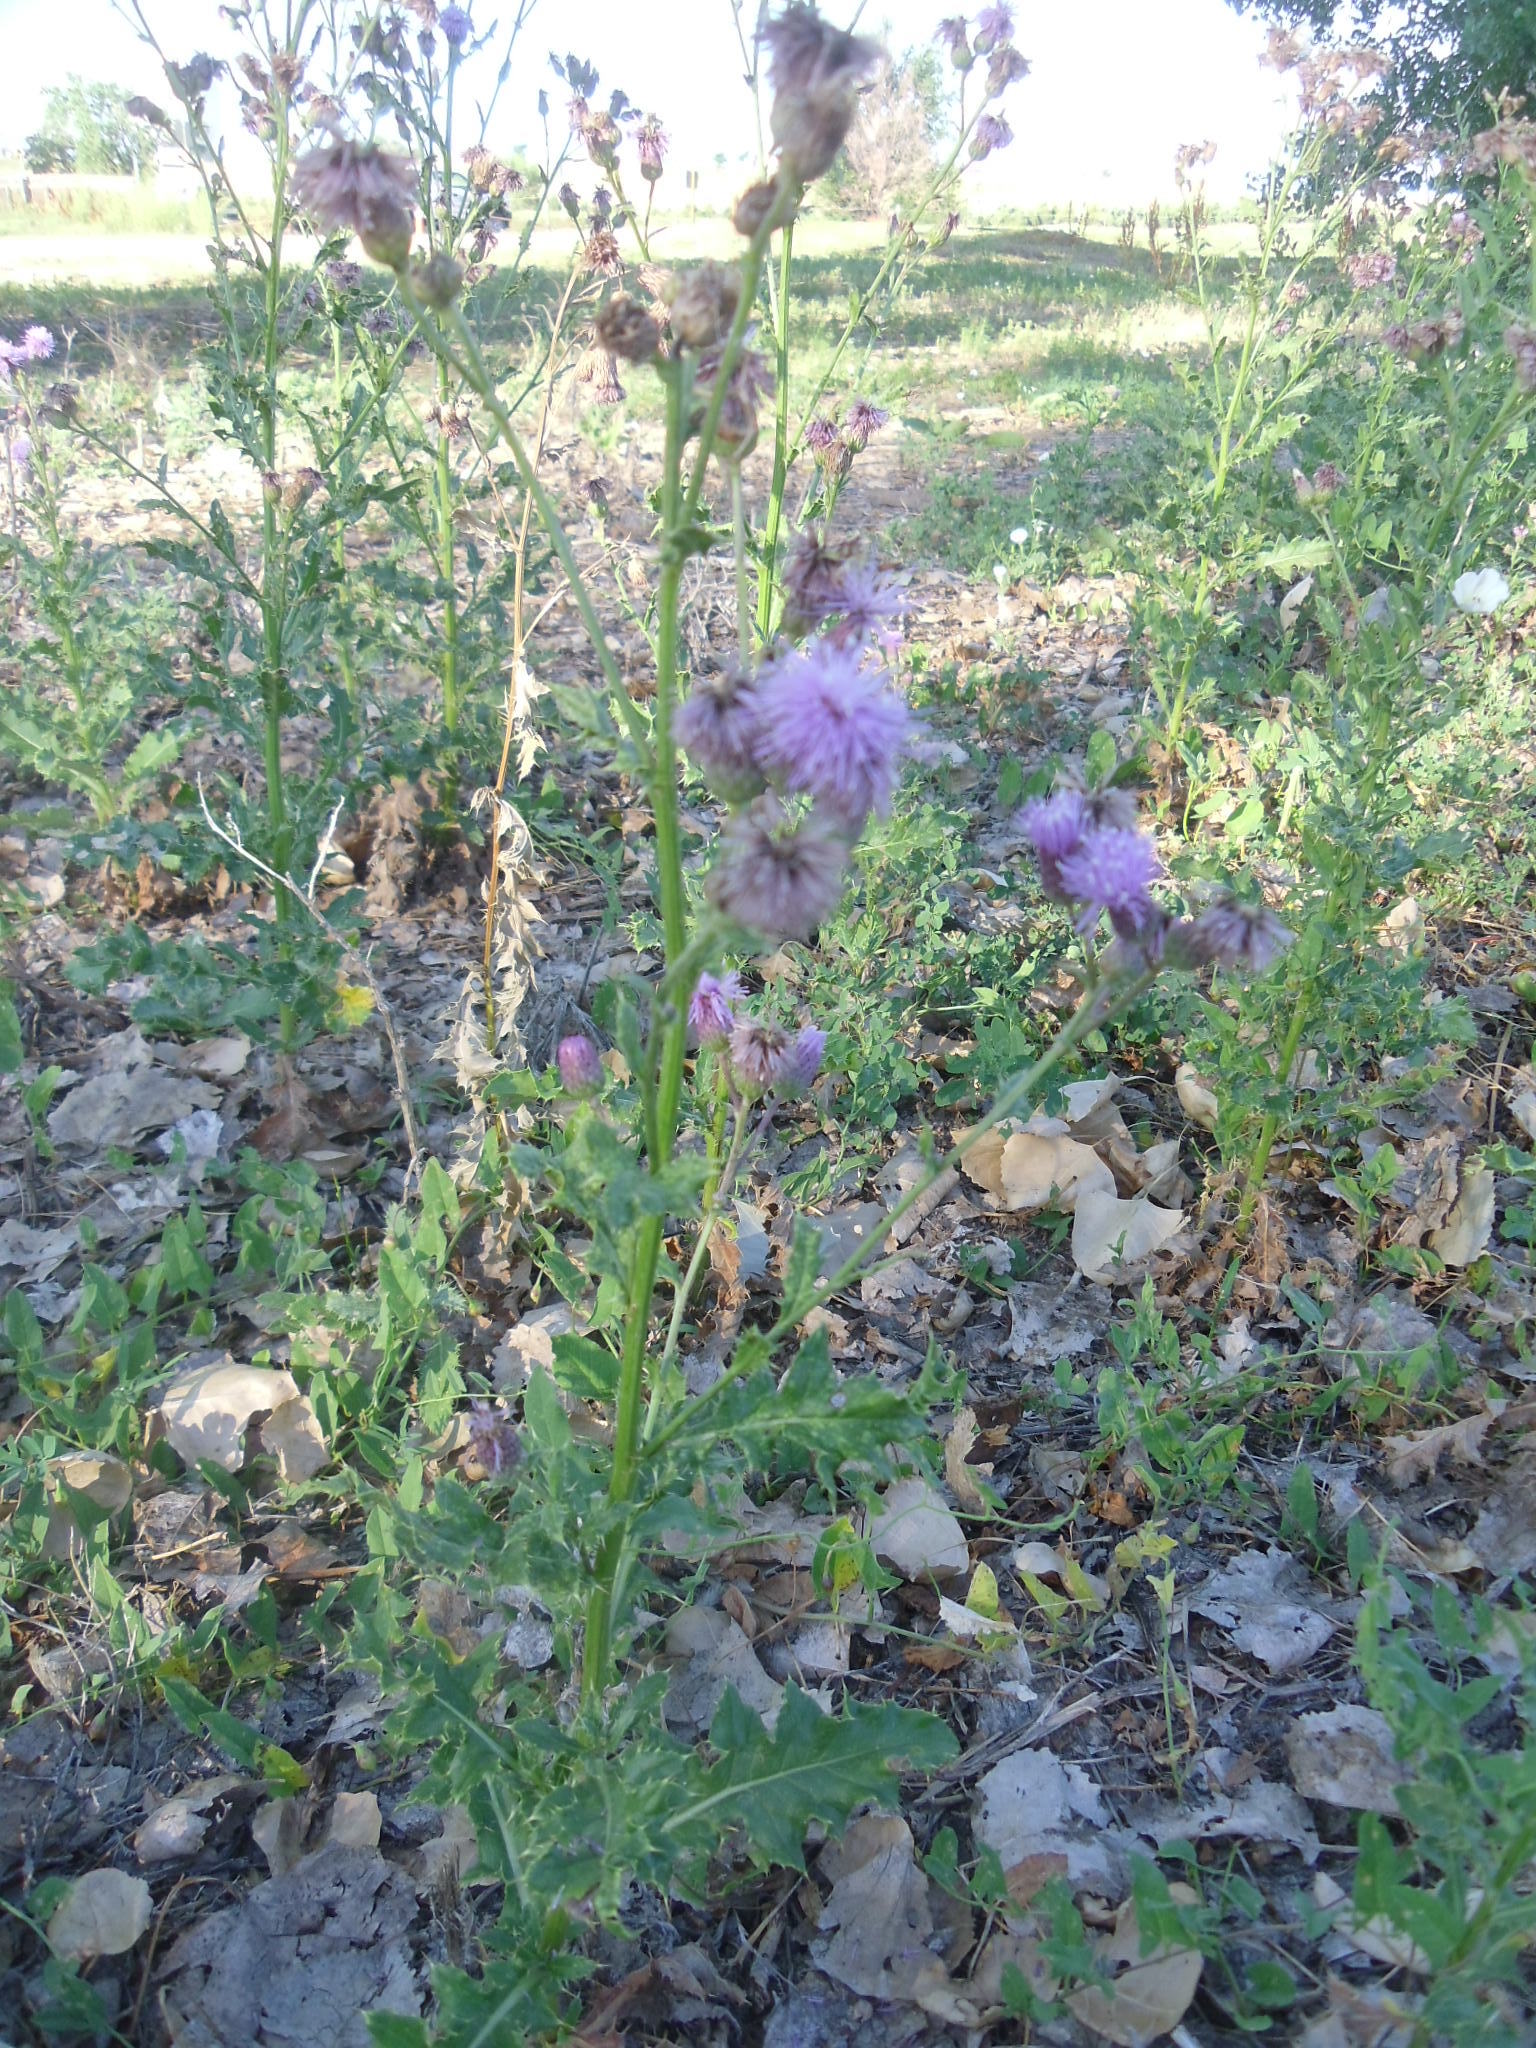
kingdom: Plantae
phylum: Tracheophyta
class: Magnoliopsida
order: Asterales
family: Asteraceae
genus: Cirsium
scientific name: Cirsium arvense
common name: Creeping thistle
